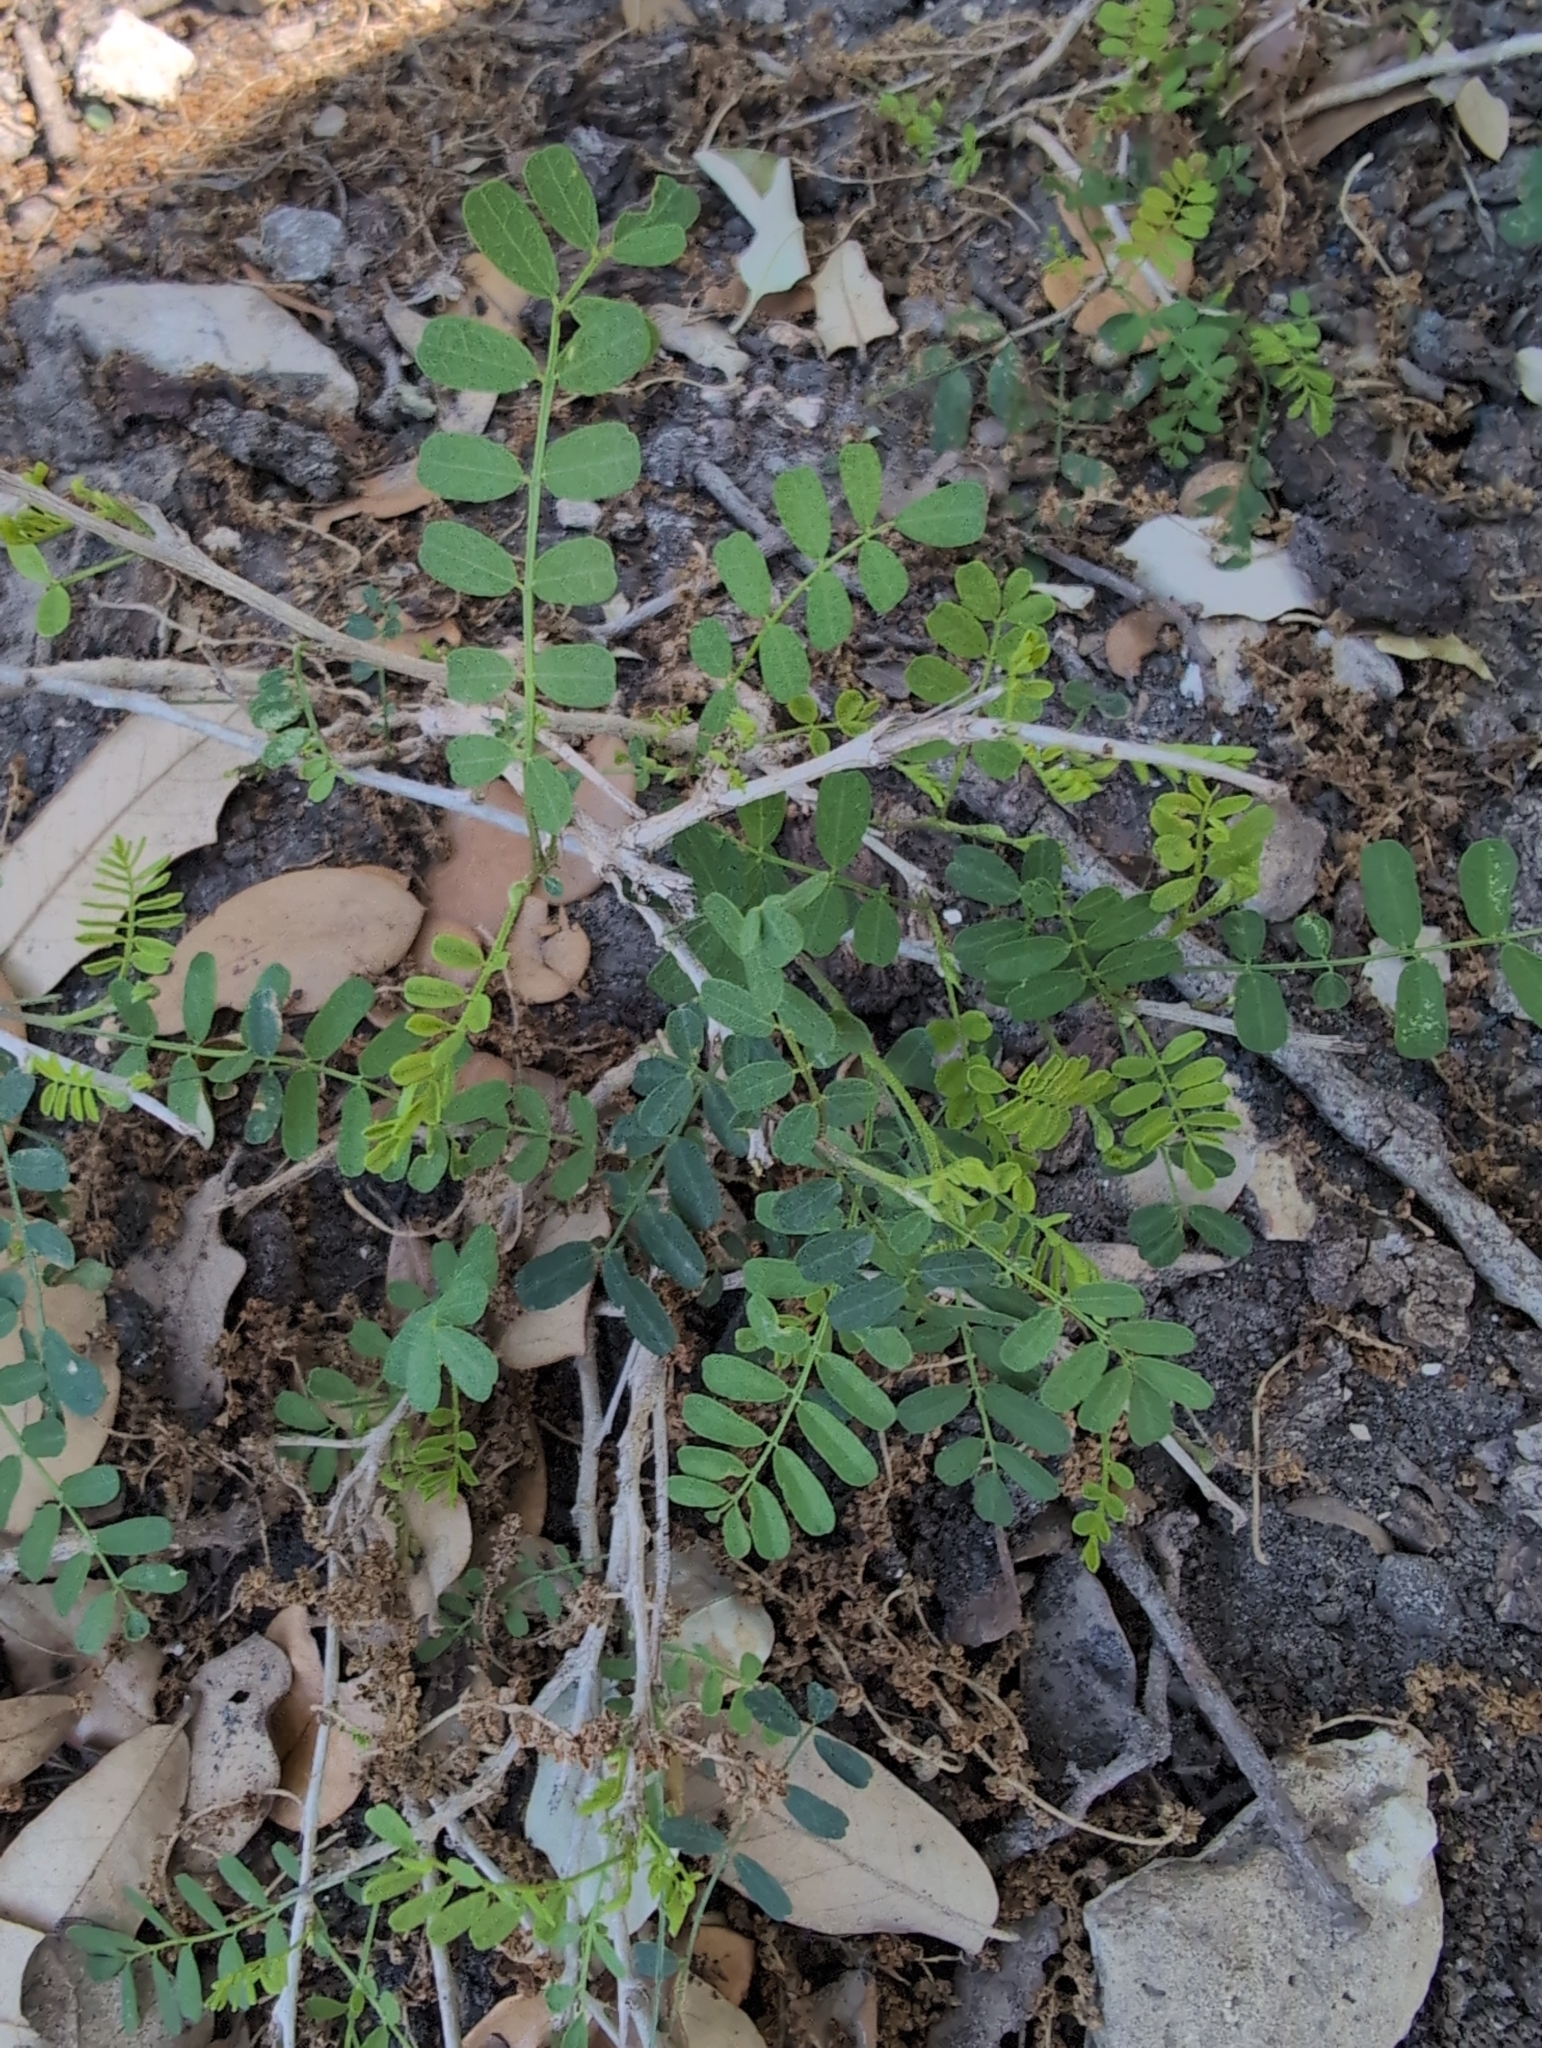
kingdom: Plantae
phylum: Tracheophyta
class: Magnoliopsida
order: Fabales
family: Fabaceae
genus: Eysenhardtia
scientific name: Eysenhardtia texana
